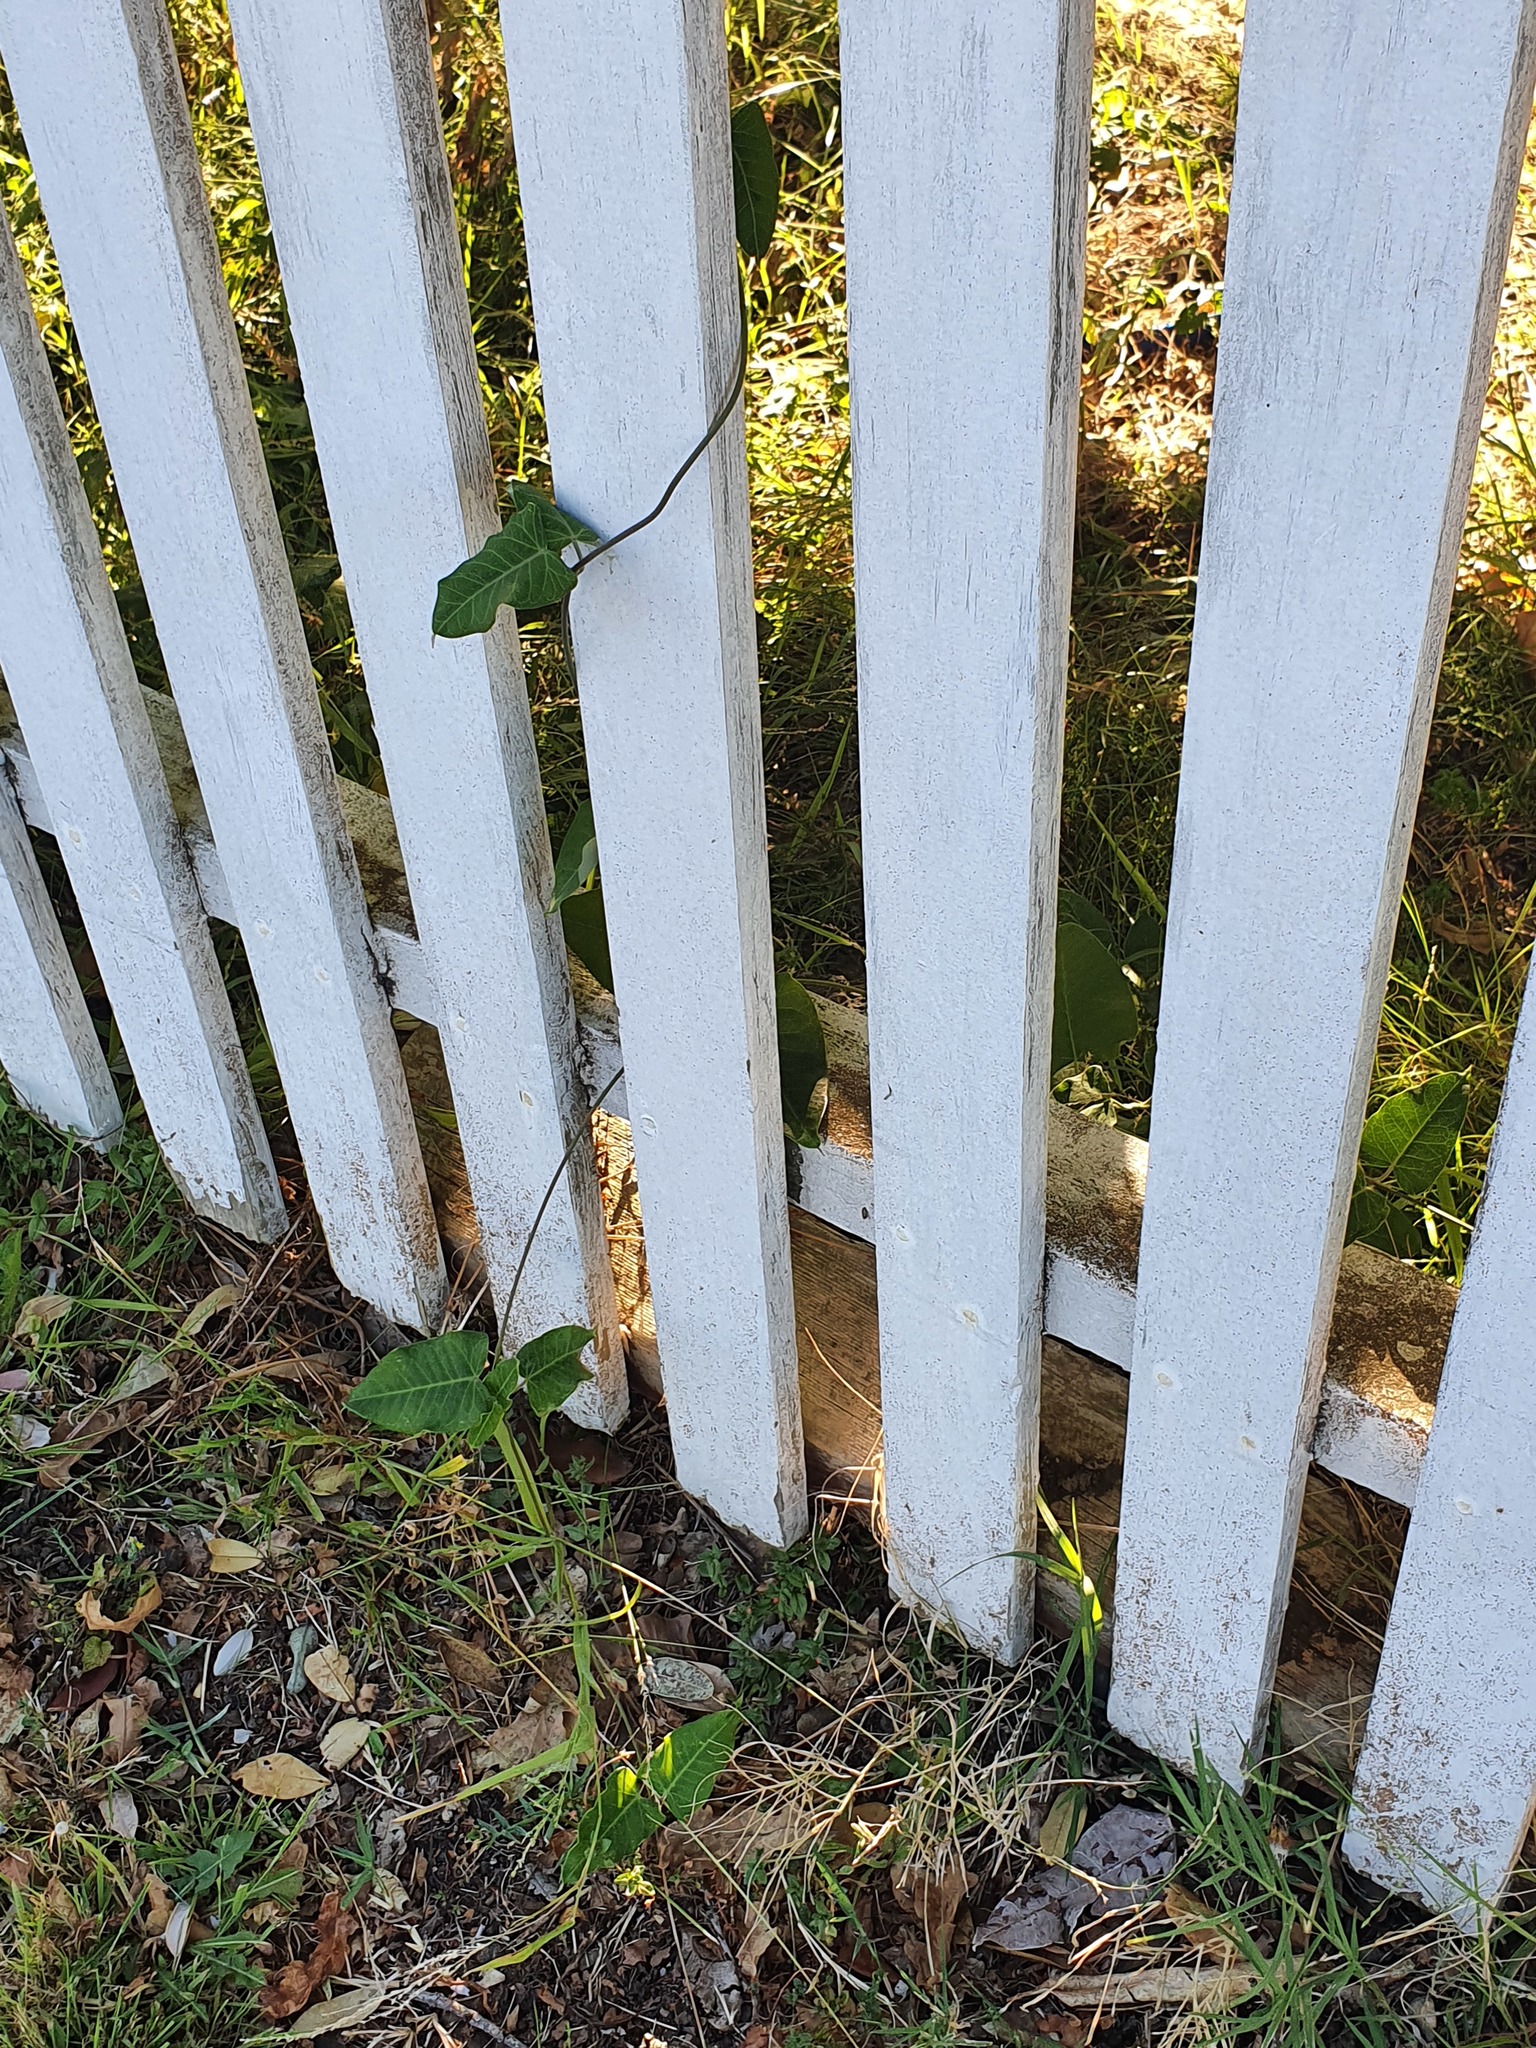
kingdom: Plantae
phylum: Tracheophyta
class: Magnoliopsida
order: Gentianales
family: Apocynaceae
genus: Araujia
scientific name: Araujia sericifera
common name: White bladderflower
